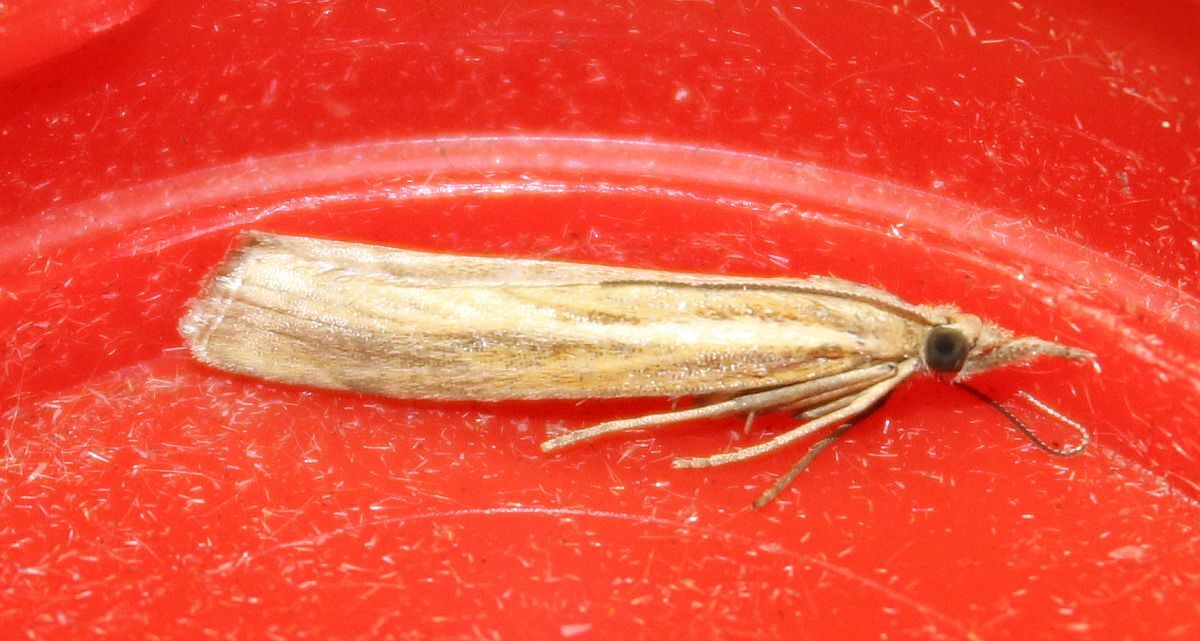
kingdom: Animalia
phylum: Arthropoda
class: Insecta
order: Lepidoptera
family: Crambidae
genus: Agriphila
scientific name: Agriphila tristellus
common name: Common grass-veneer
